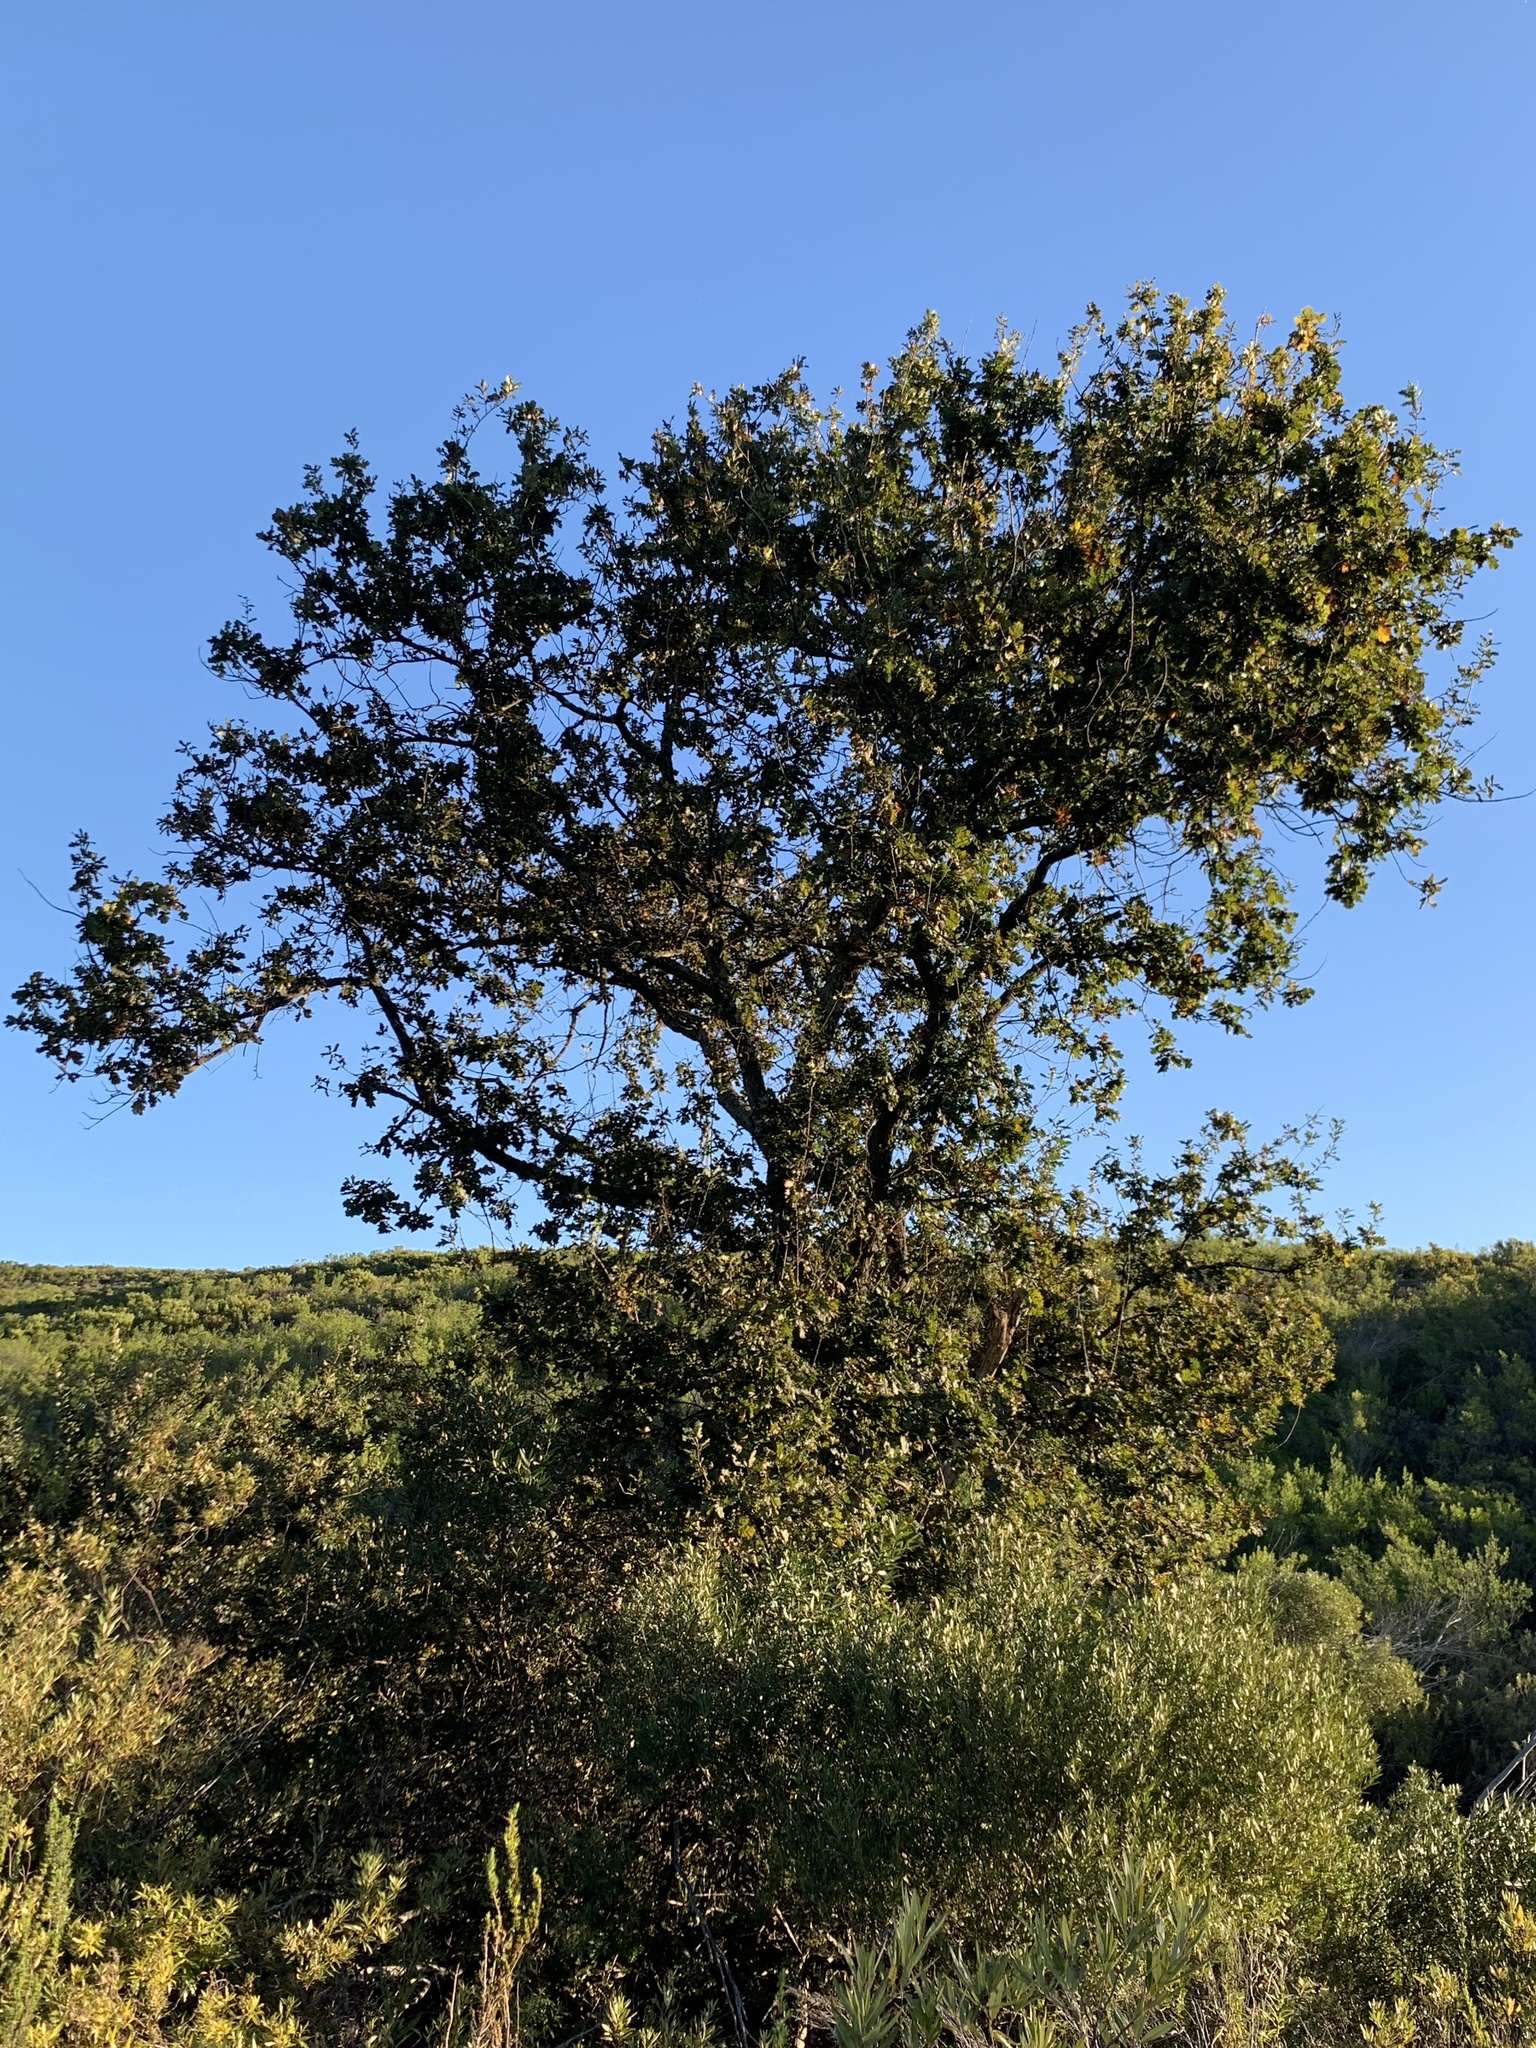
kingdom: Plantae
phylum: Tracheophyta
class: Magnoliopsida
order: Fagales
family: Fagaceae
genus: Quercus
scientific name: Quercus robur
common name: Pedunculate oak
